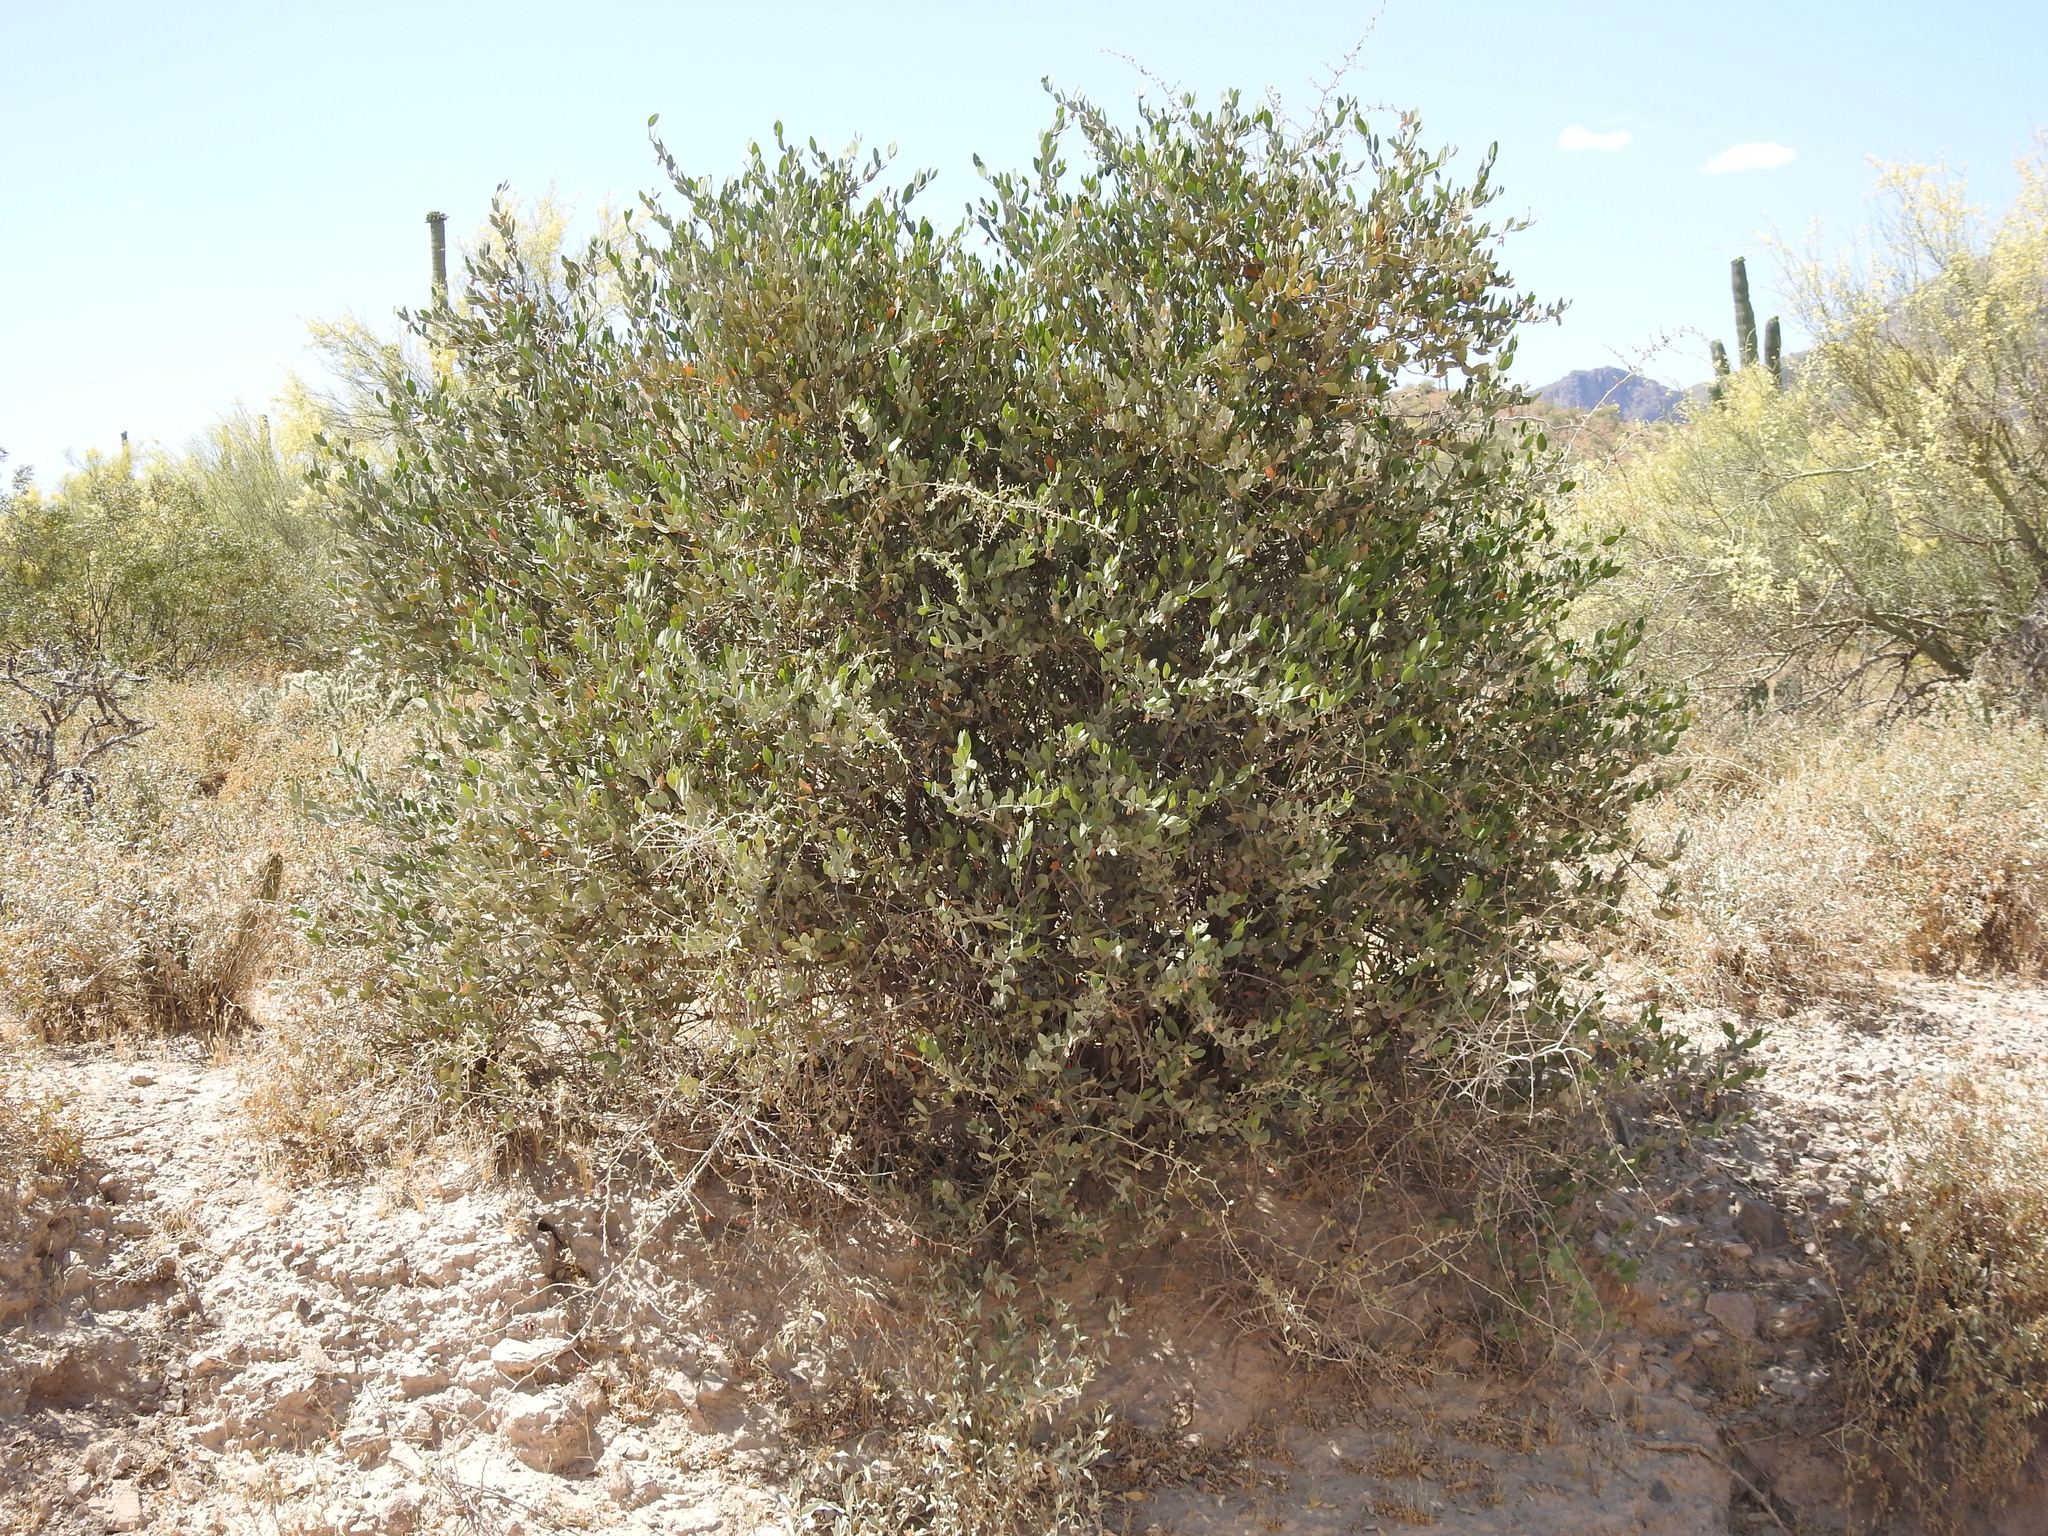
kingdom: Plantae
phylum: Tracheophyta
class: Magnoliopsida
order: Caryophyllales
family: Simmondsiaceae
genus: Simmondsia
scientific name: Simmondsia chinensis
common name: Jojoba
